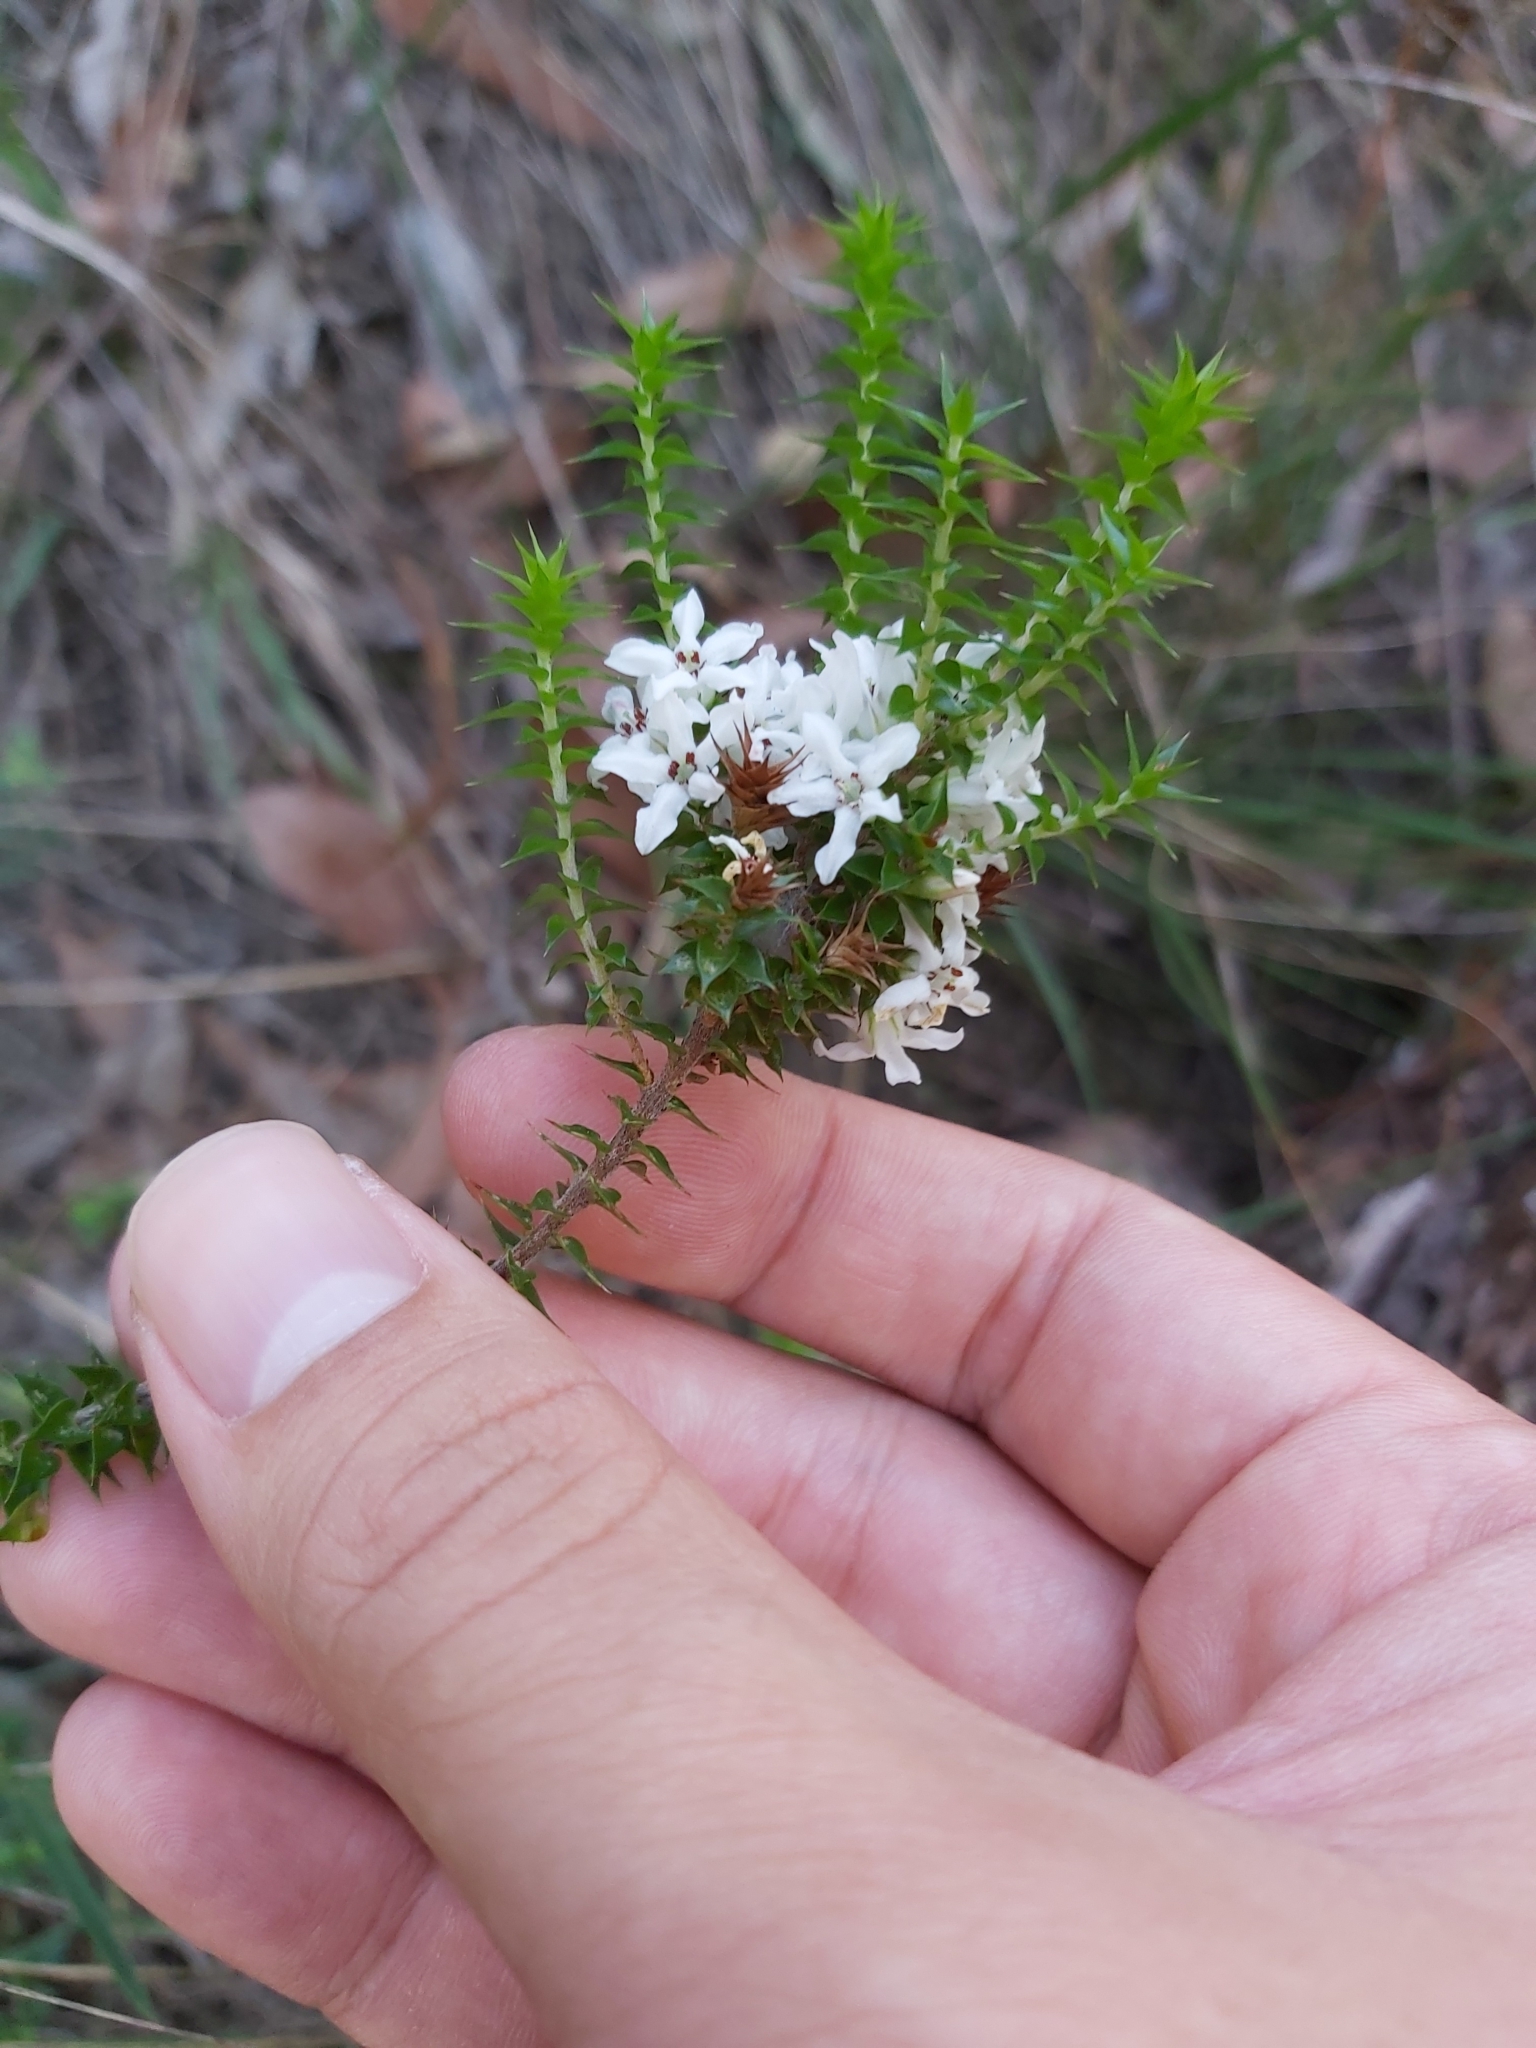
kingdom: Plantae
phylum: Tracheophyta
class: Magnoliopsida
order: Ericales
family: Ericaceae
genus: Epacris
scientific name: Epacris pulchella
